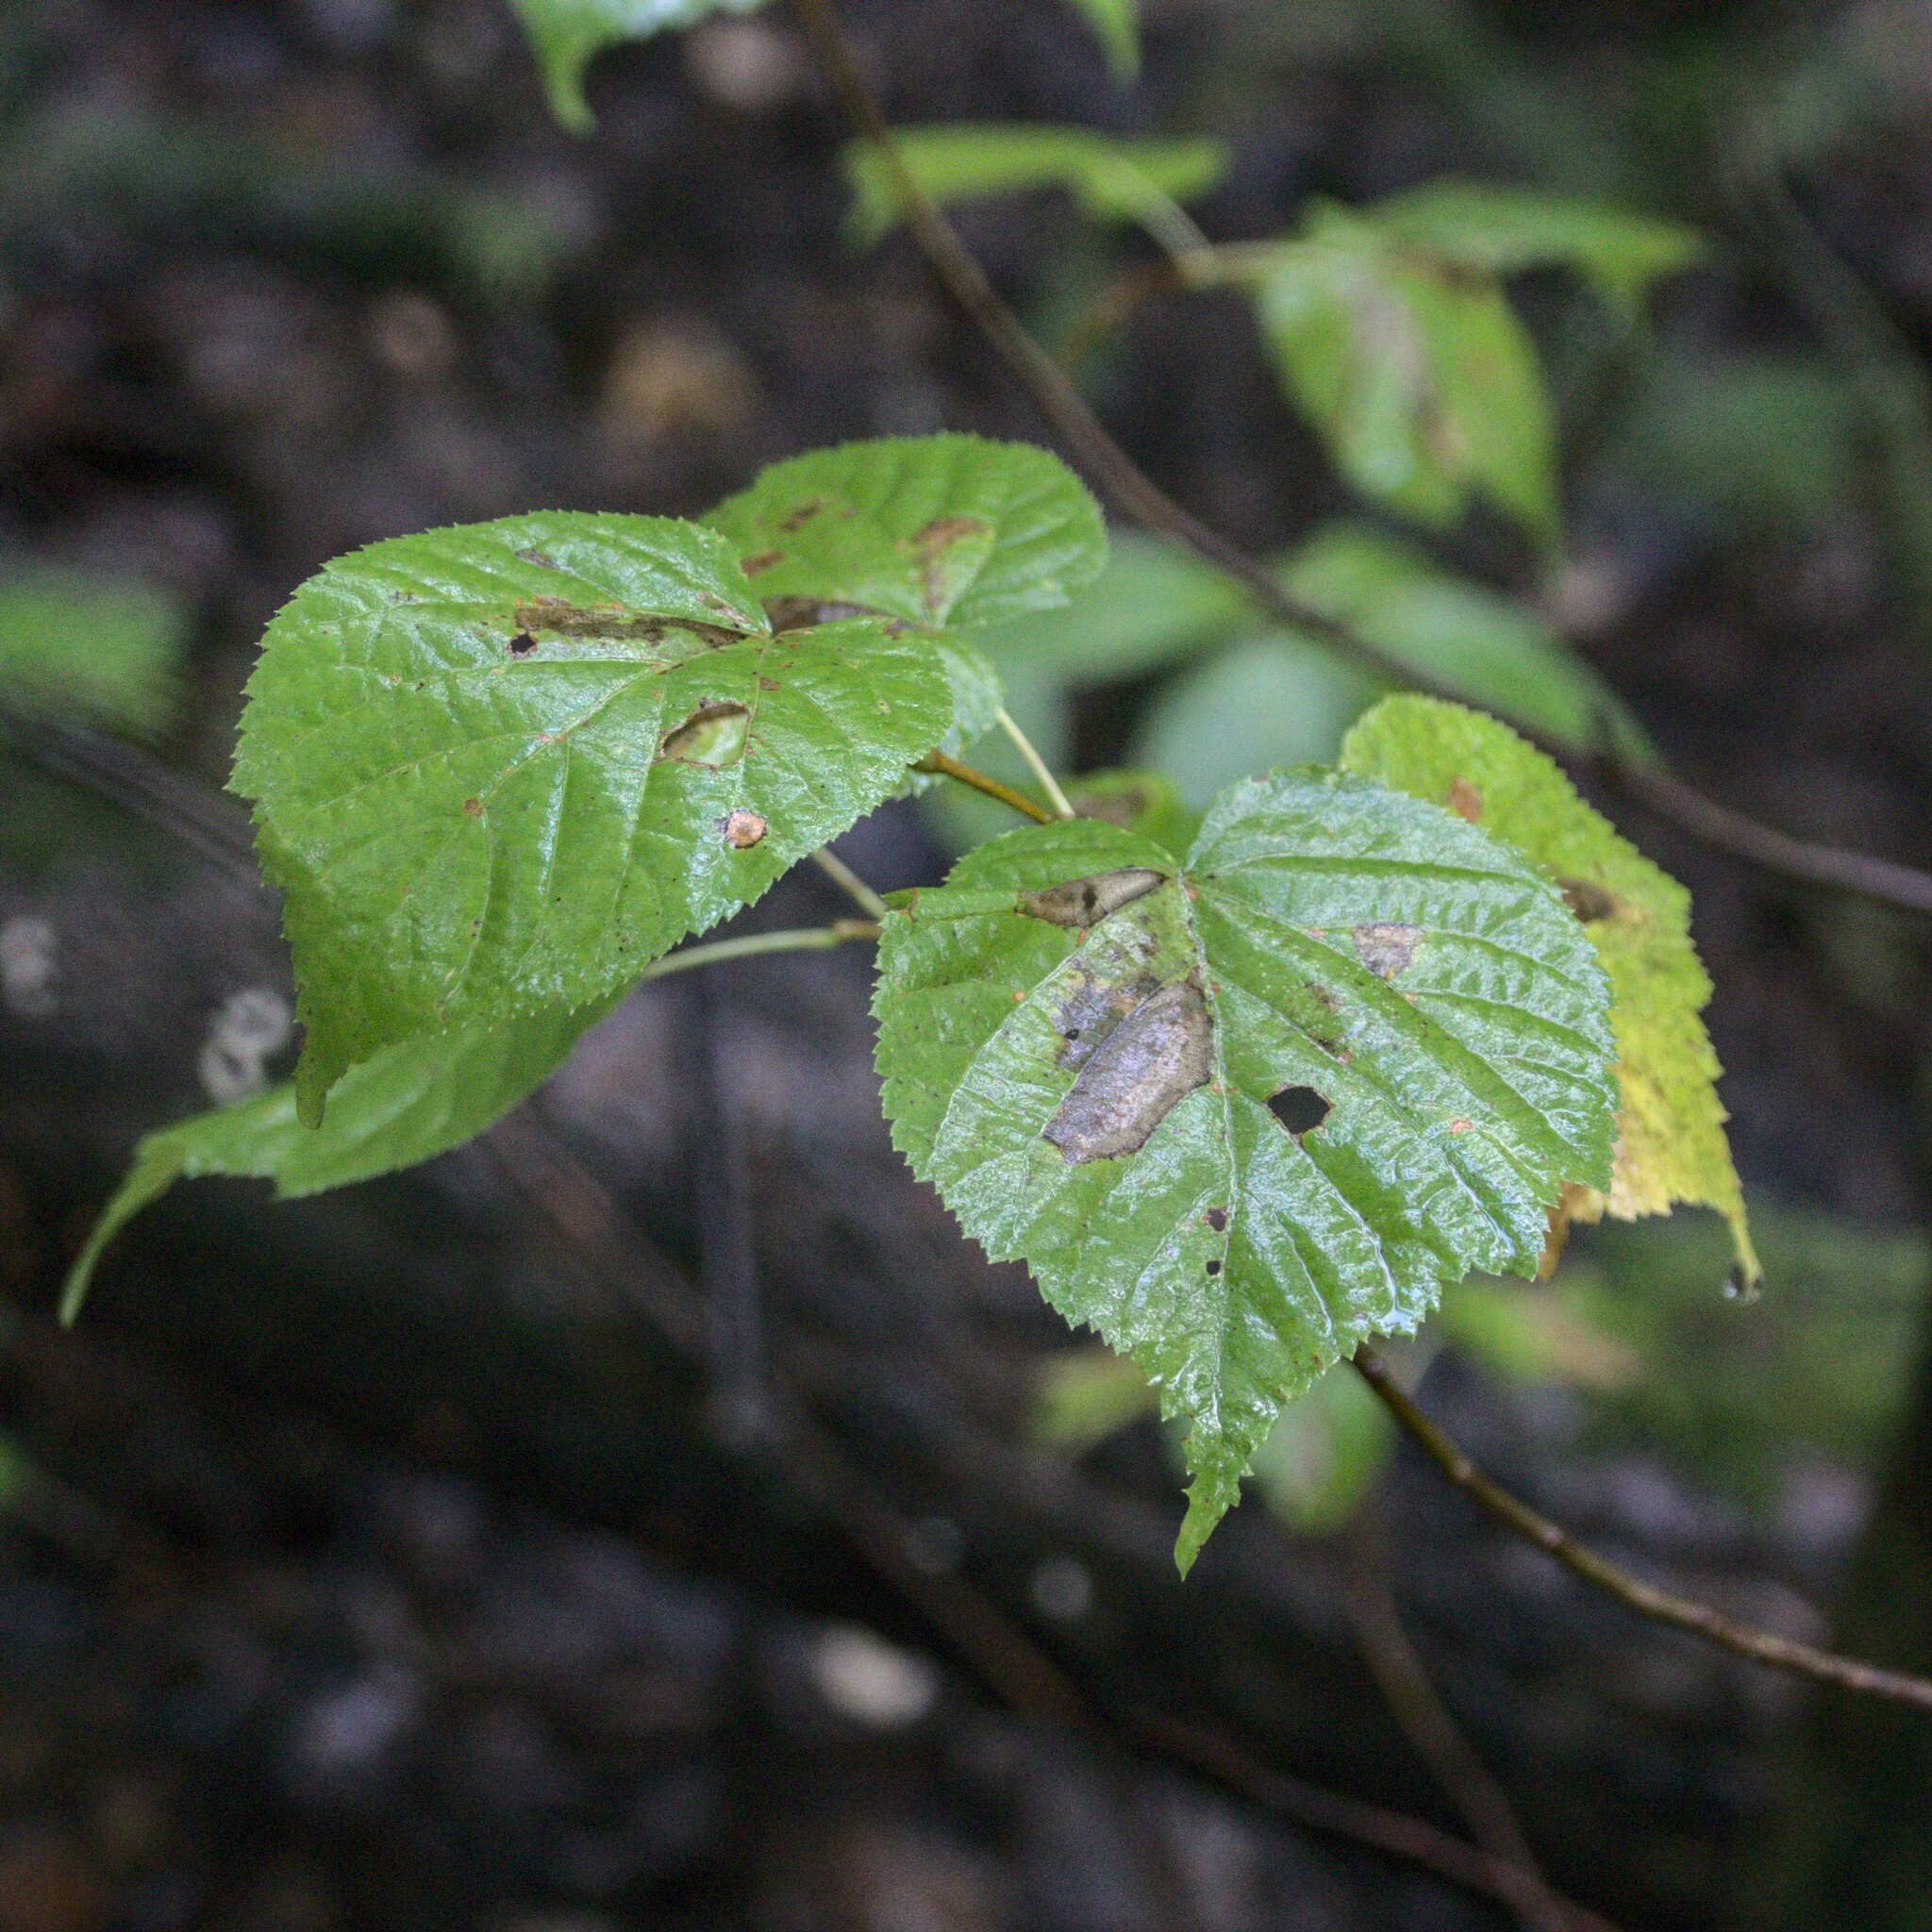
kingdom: Plantae
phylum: Tracheophyta
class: Magnoliopsida
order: Malvales
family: Malvaceae
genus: Tilia
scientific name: Tilia cordata
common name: Small-leaved lime
